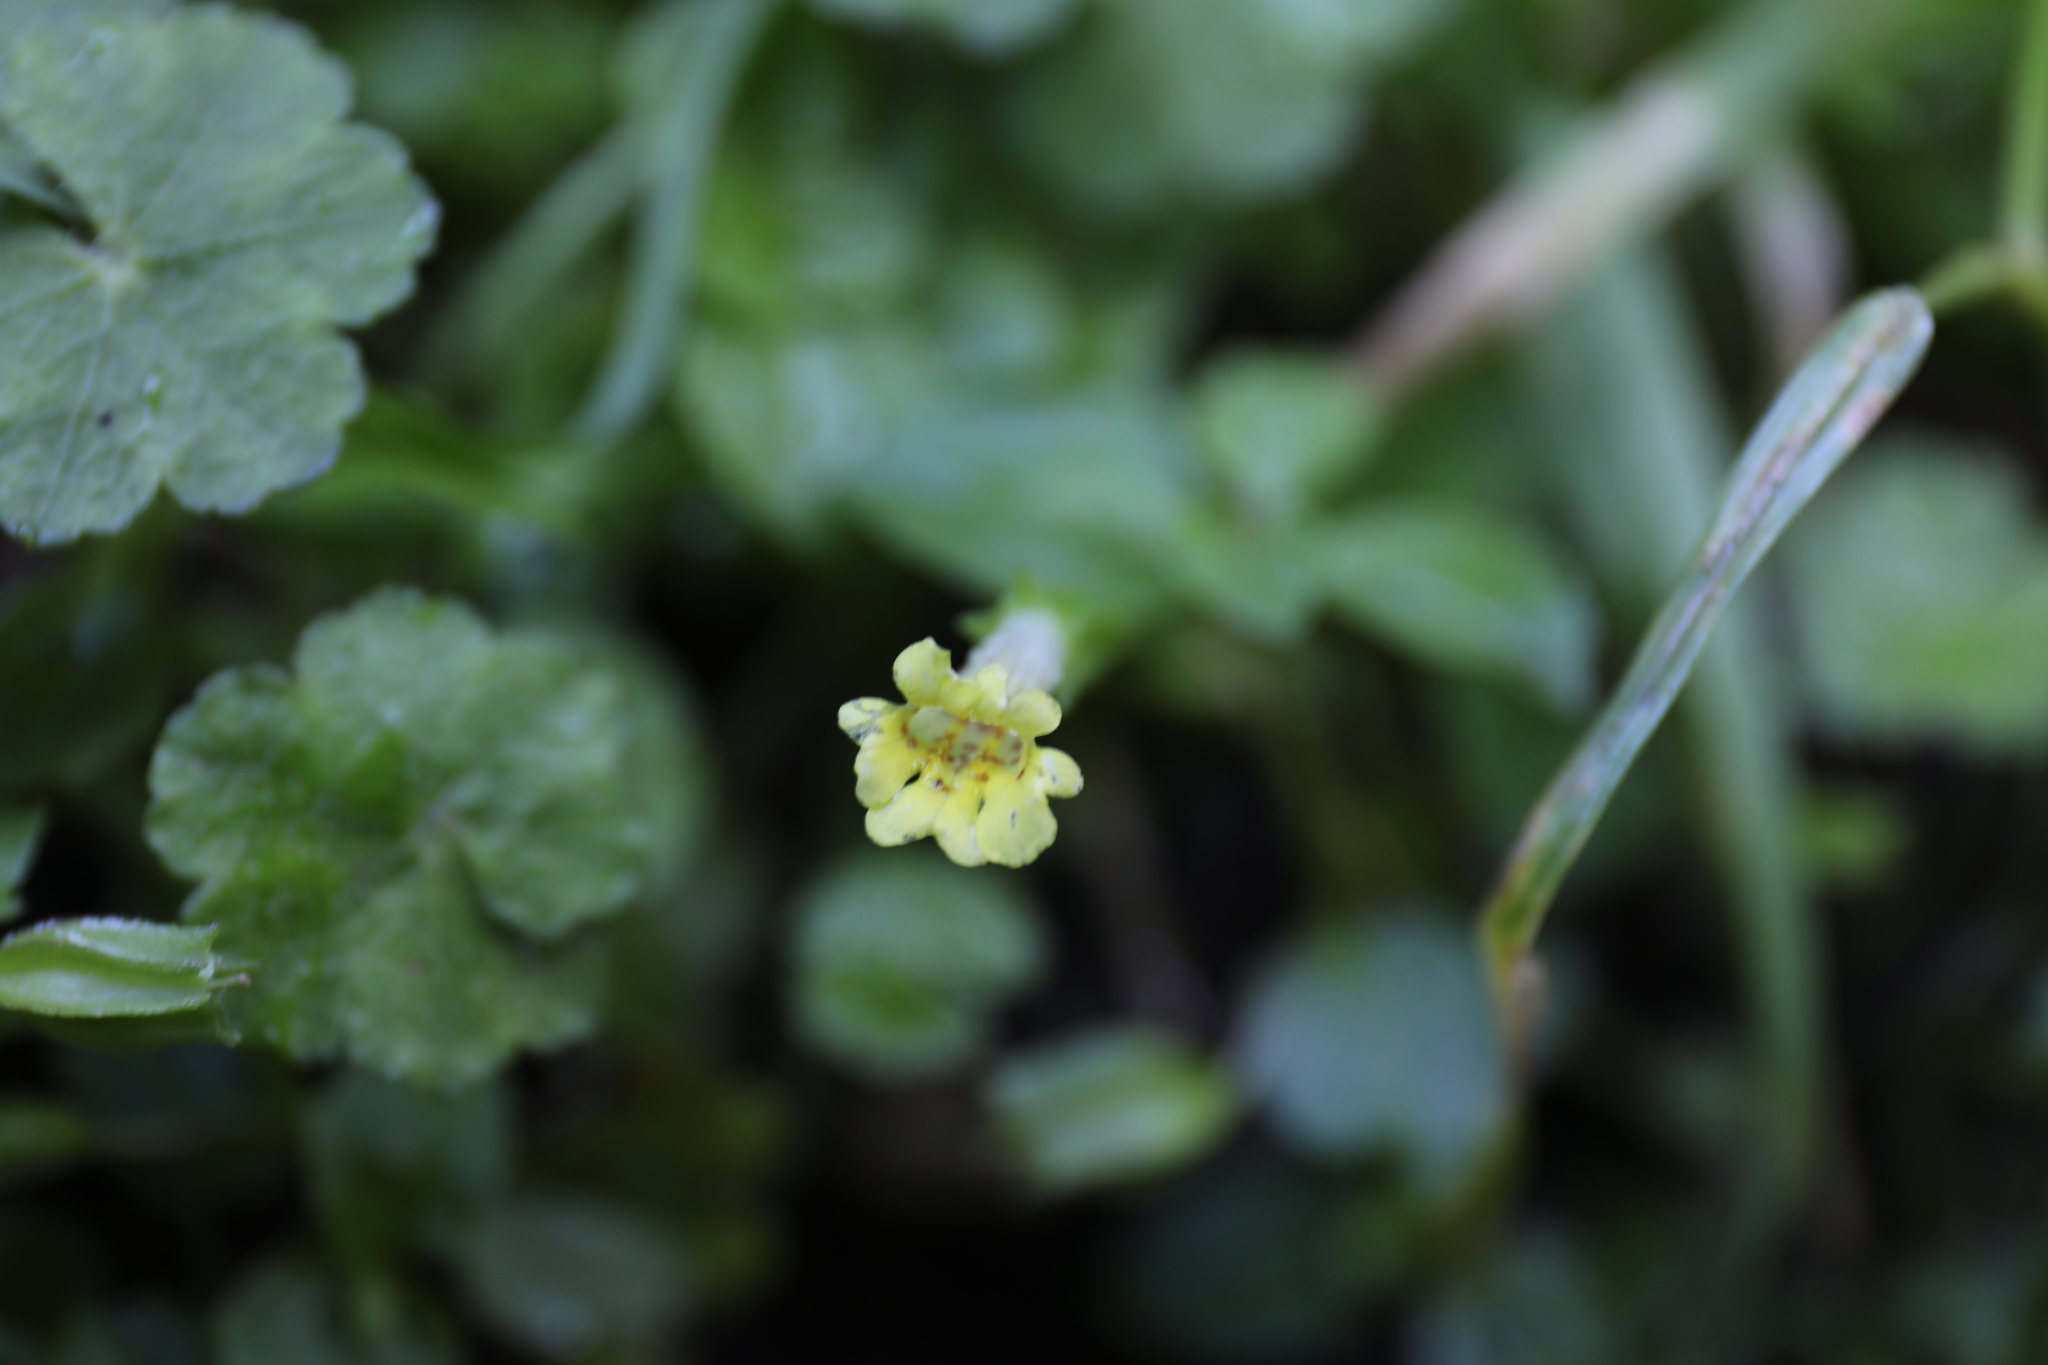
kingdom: Plantae
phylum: Tracheophyta
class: Magnoliopsida
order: Lamiales
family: Phrymaceae
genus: Erythranthe
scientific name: Erythranthe nepalensis
